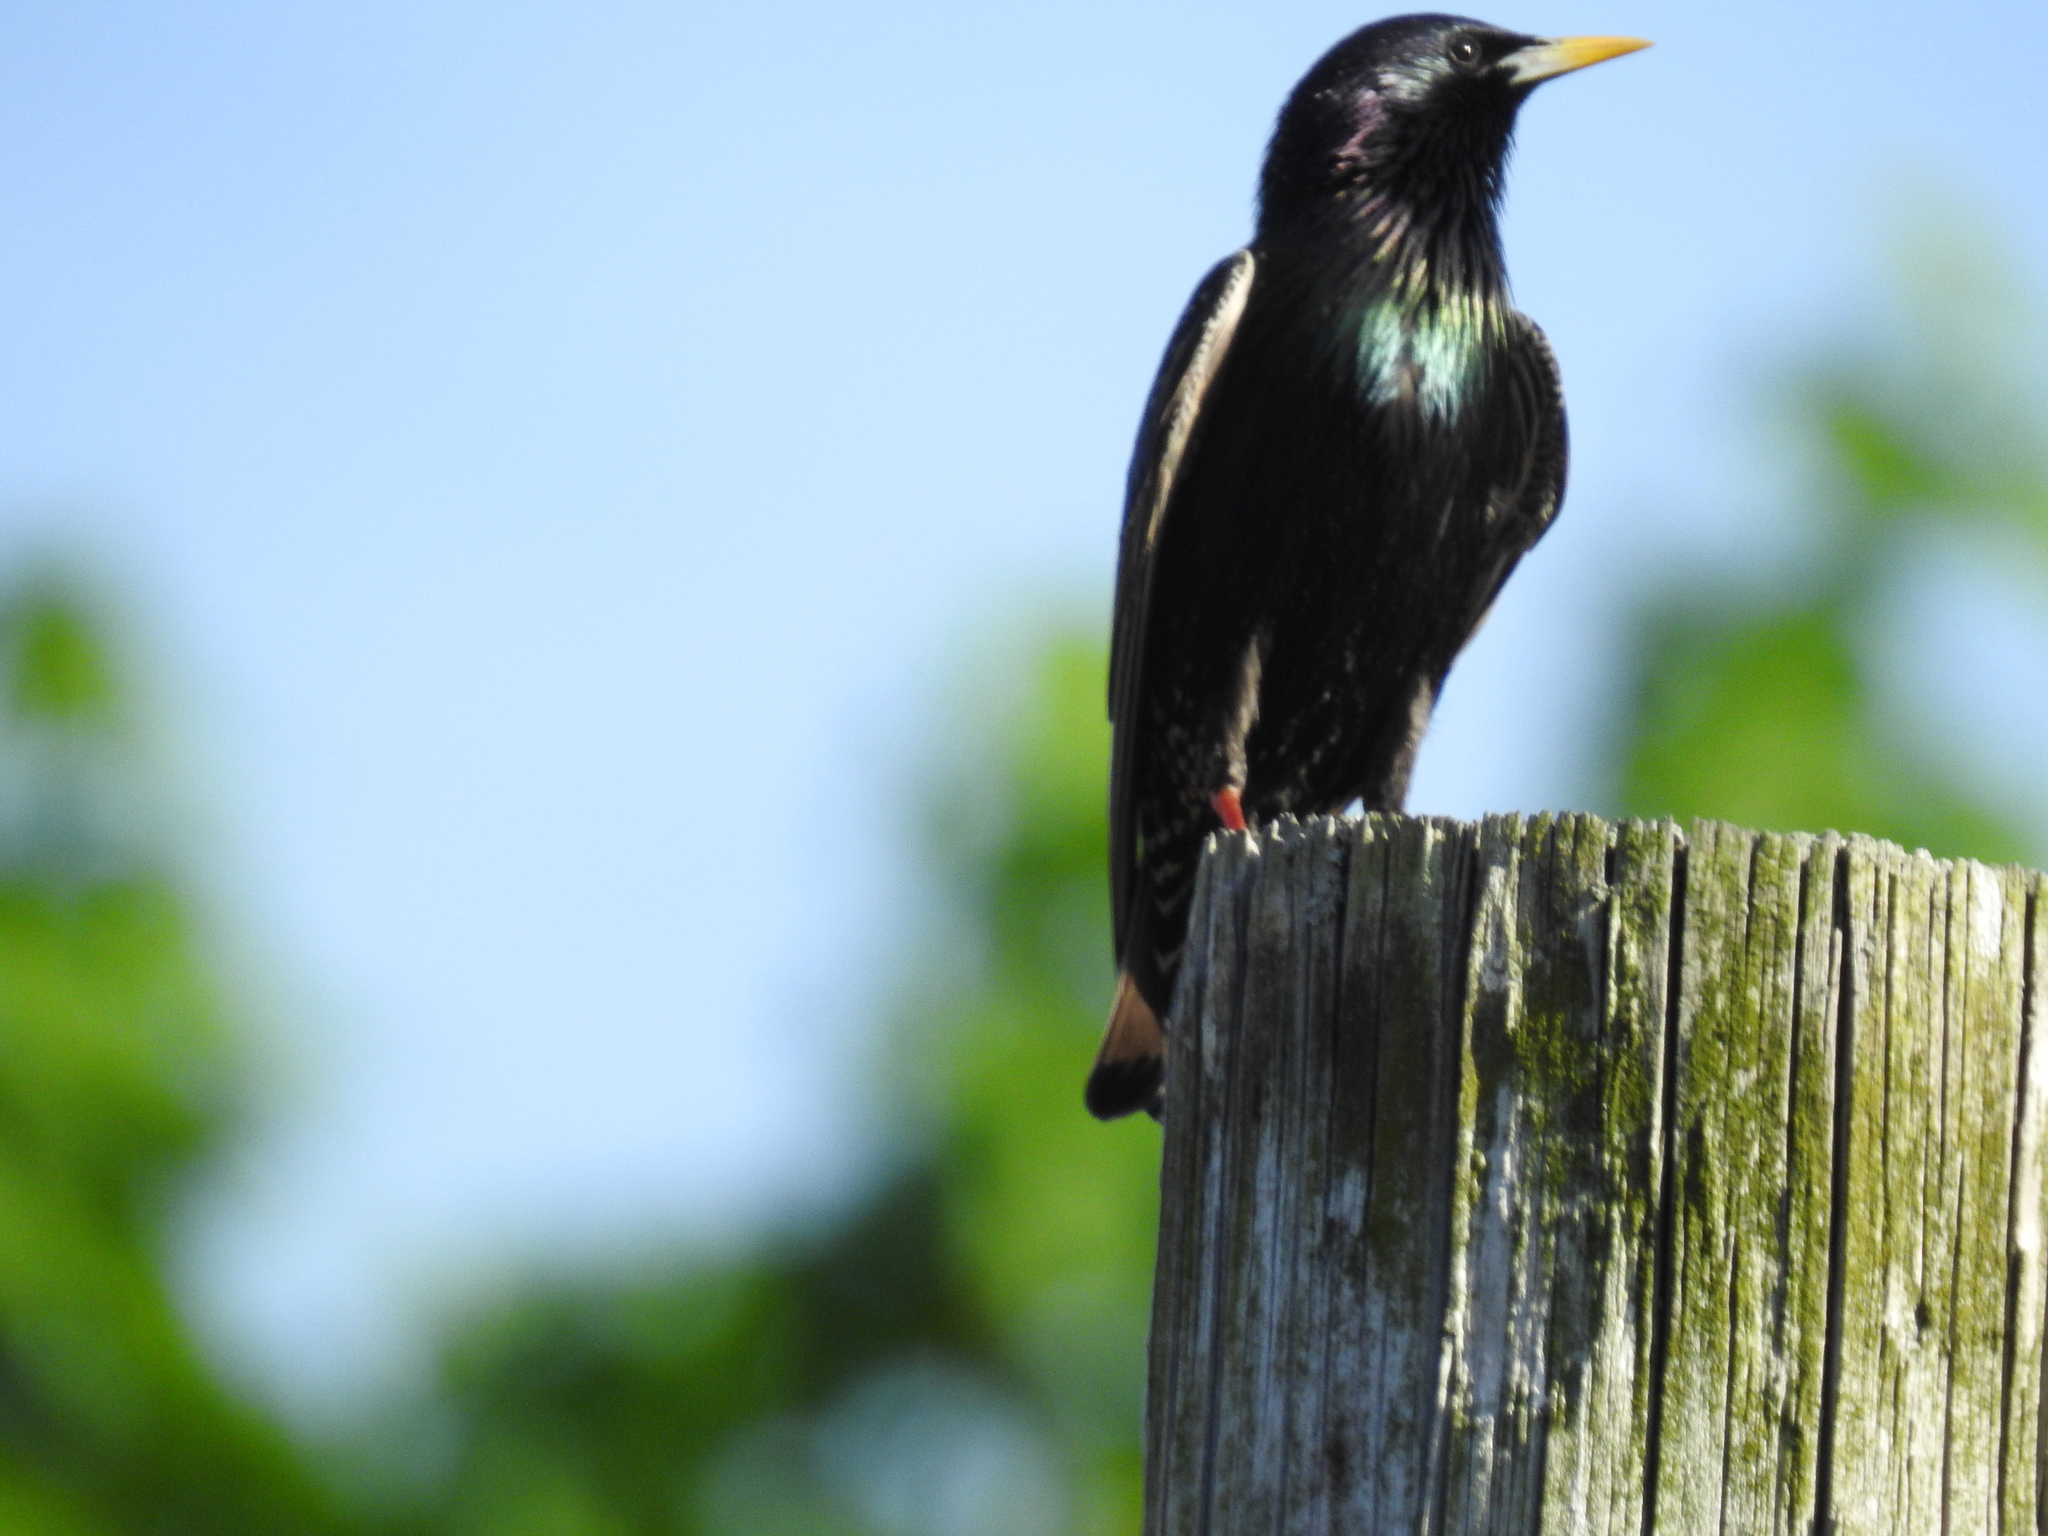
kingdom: Animalia
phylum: Chordata
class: Aves
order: Passeriformes
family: Sturnidae
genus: Sturnus
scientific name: Sturnus vulgaris
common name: Common starling
